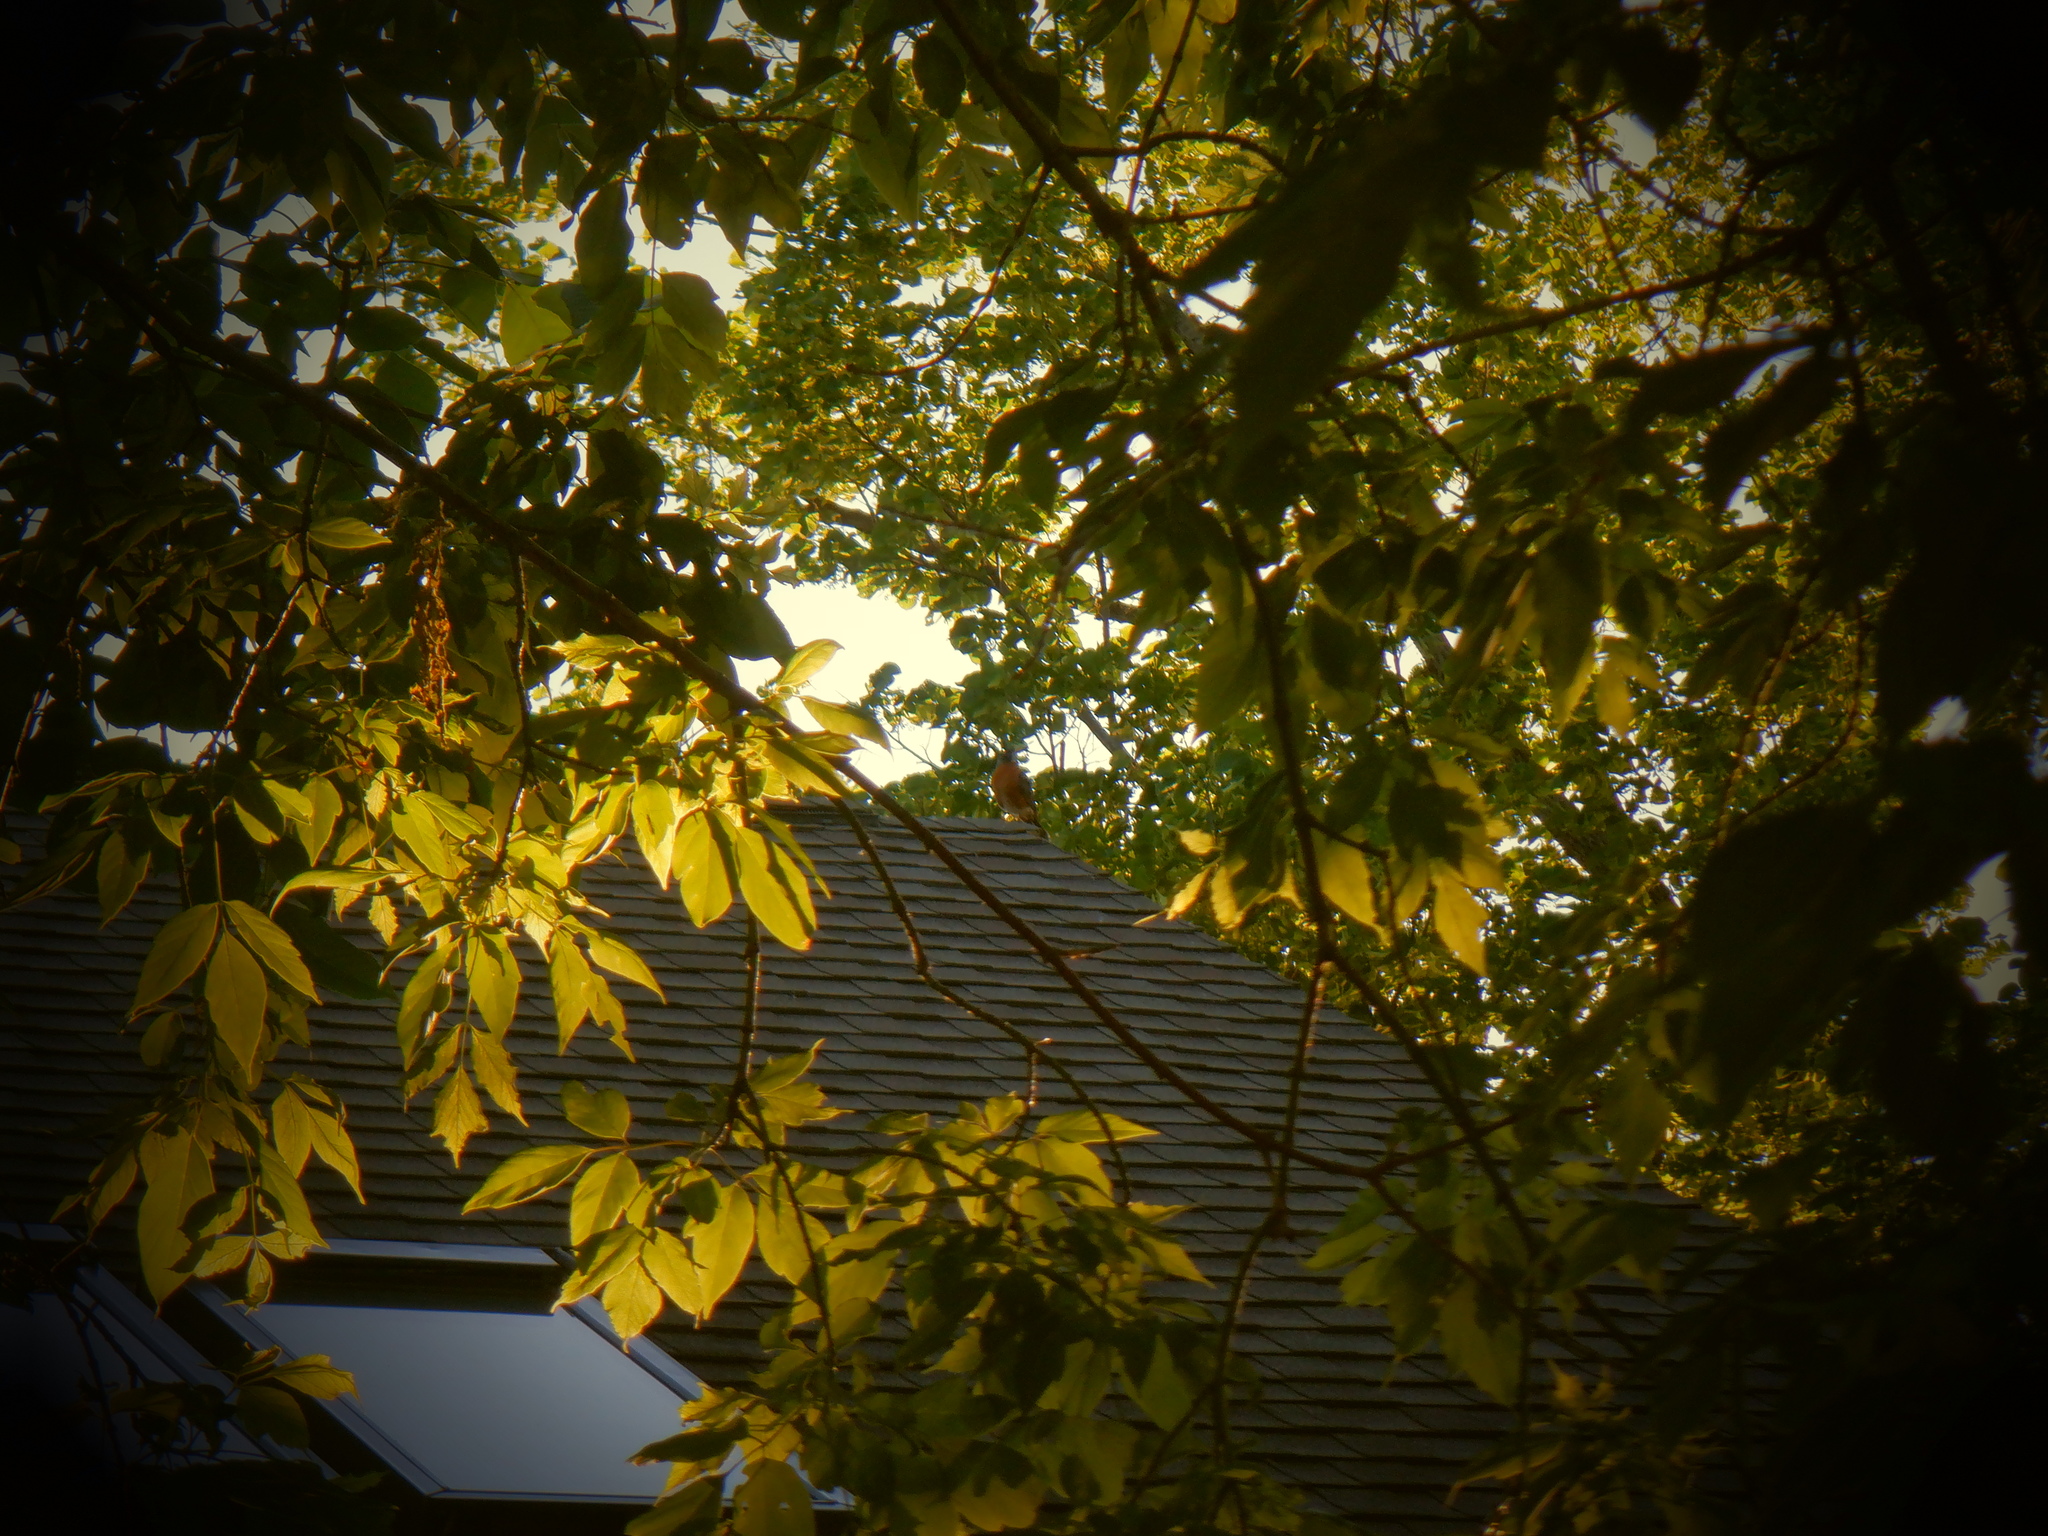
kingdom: Animalia
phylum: Chordata
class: Aves
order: Passeriformes
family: Turdidae
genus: Turdus
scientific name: Turdus migratorius
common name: American robin
